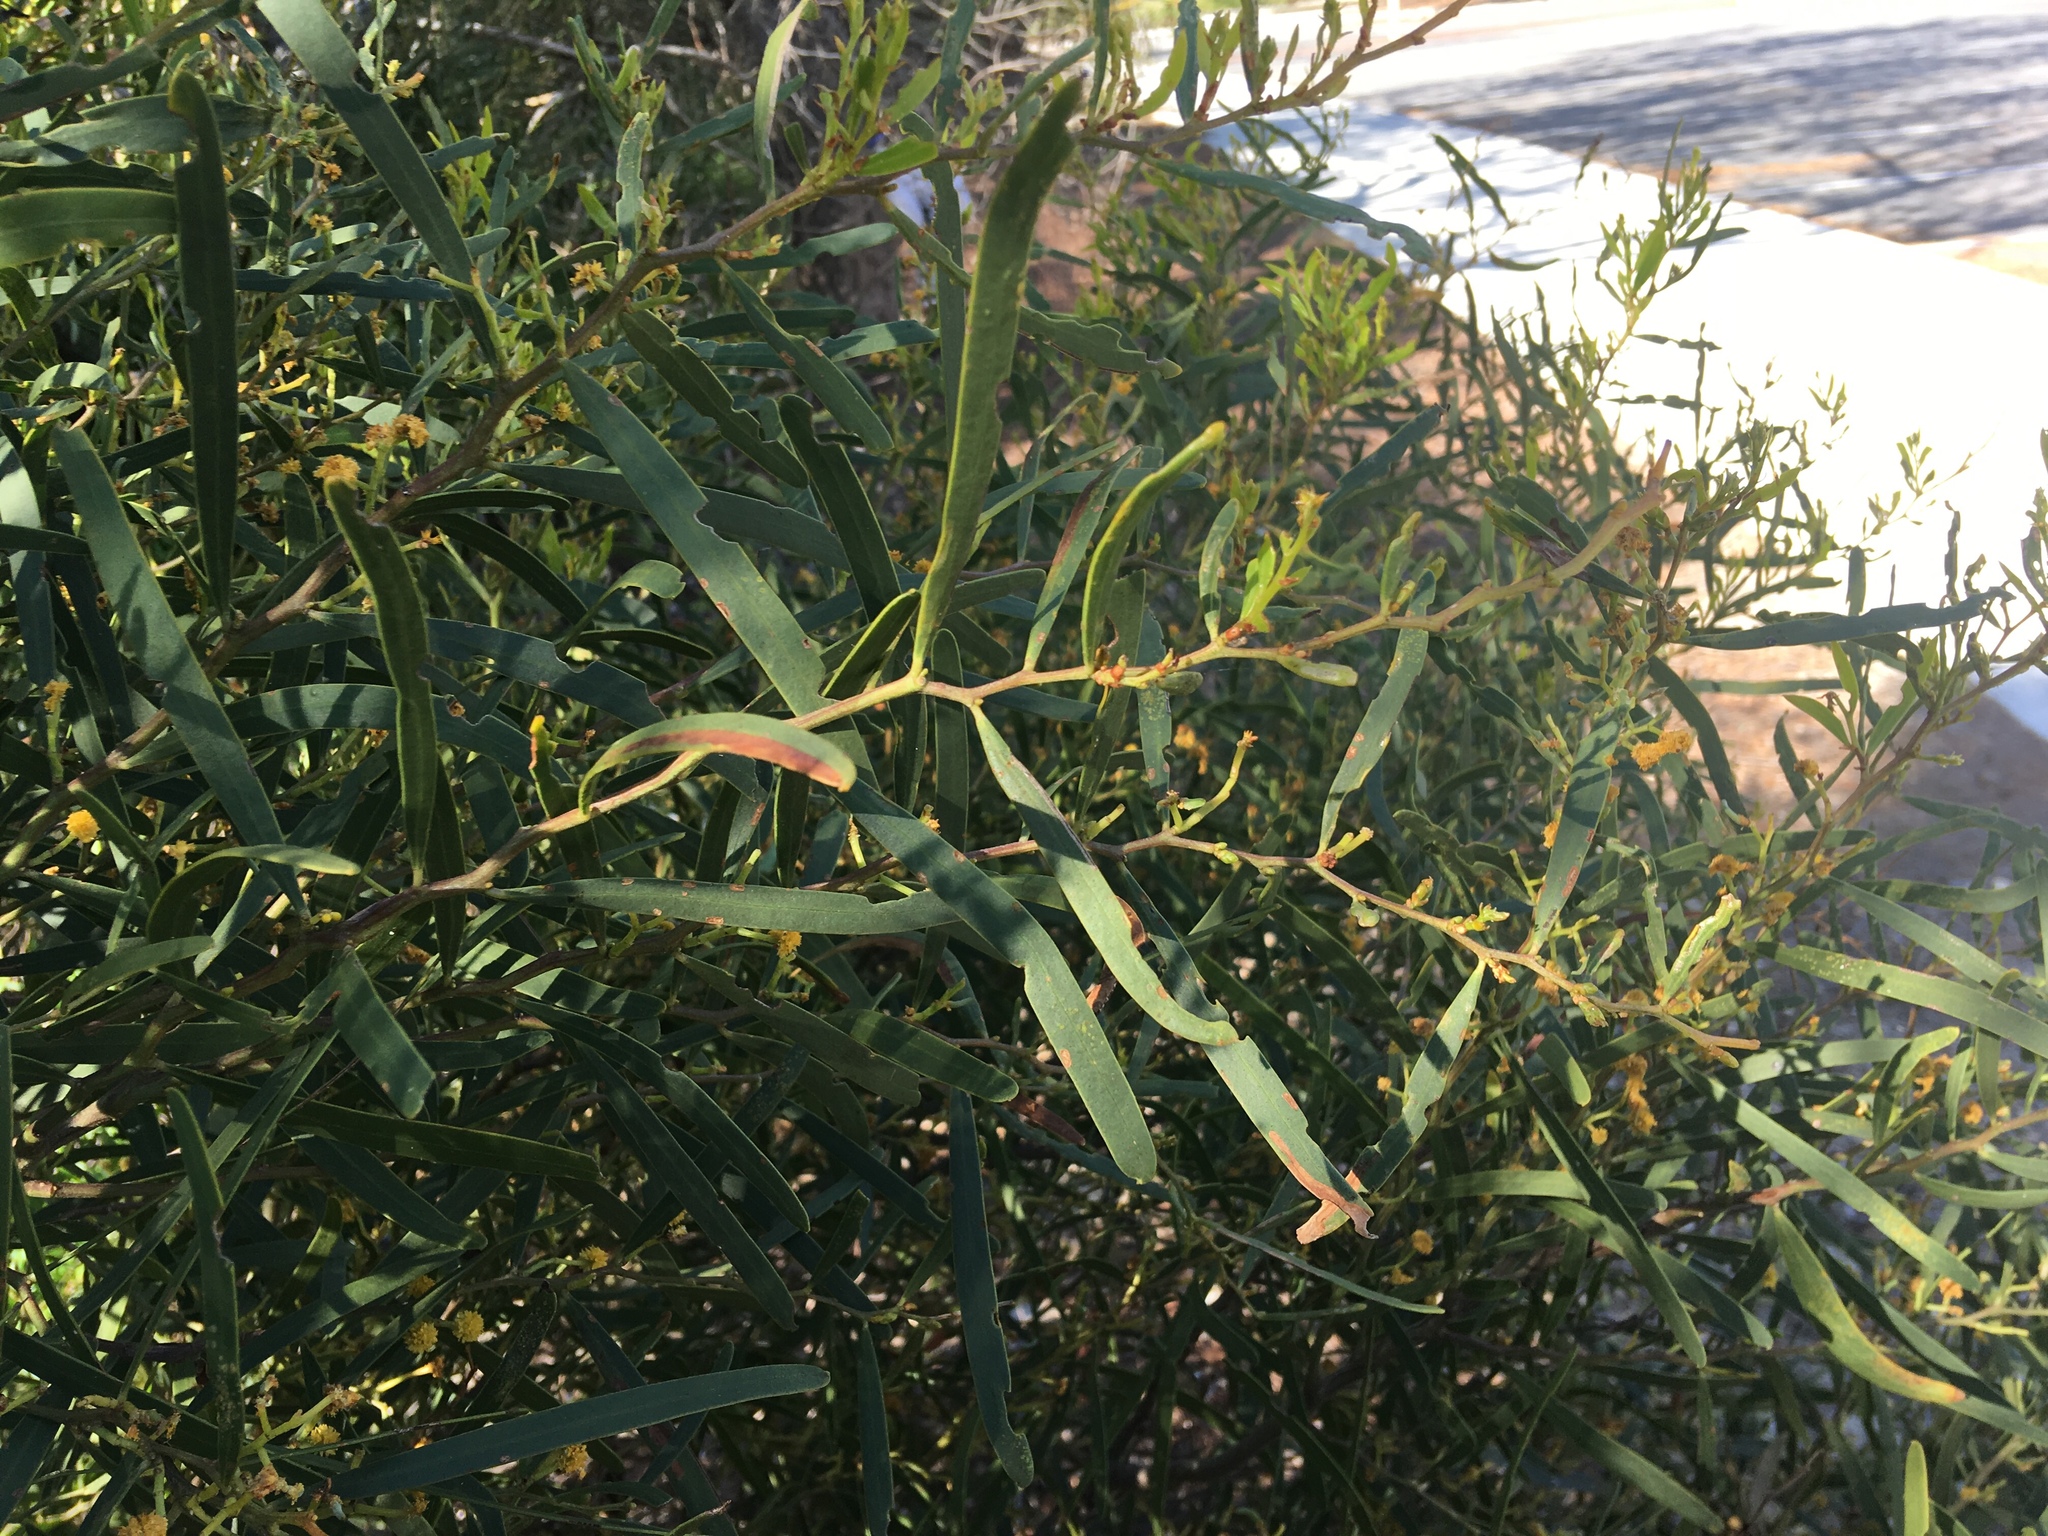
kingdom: Plantae
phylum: Tracheophyta
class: Magnoliopsida
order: Fabales
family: Fabaceae
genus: Acacia
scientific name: Acacia rostellifera
